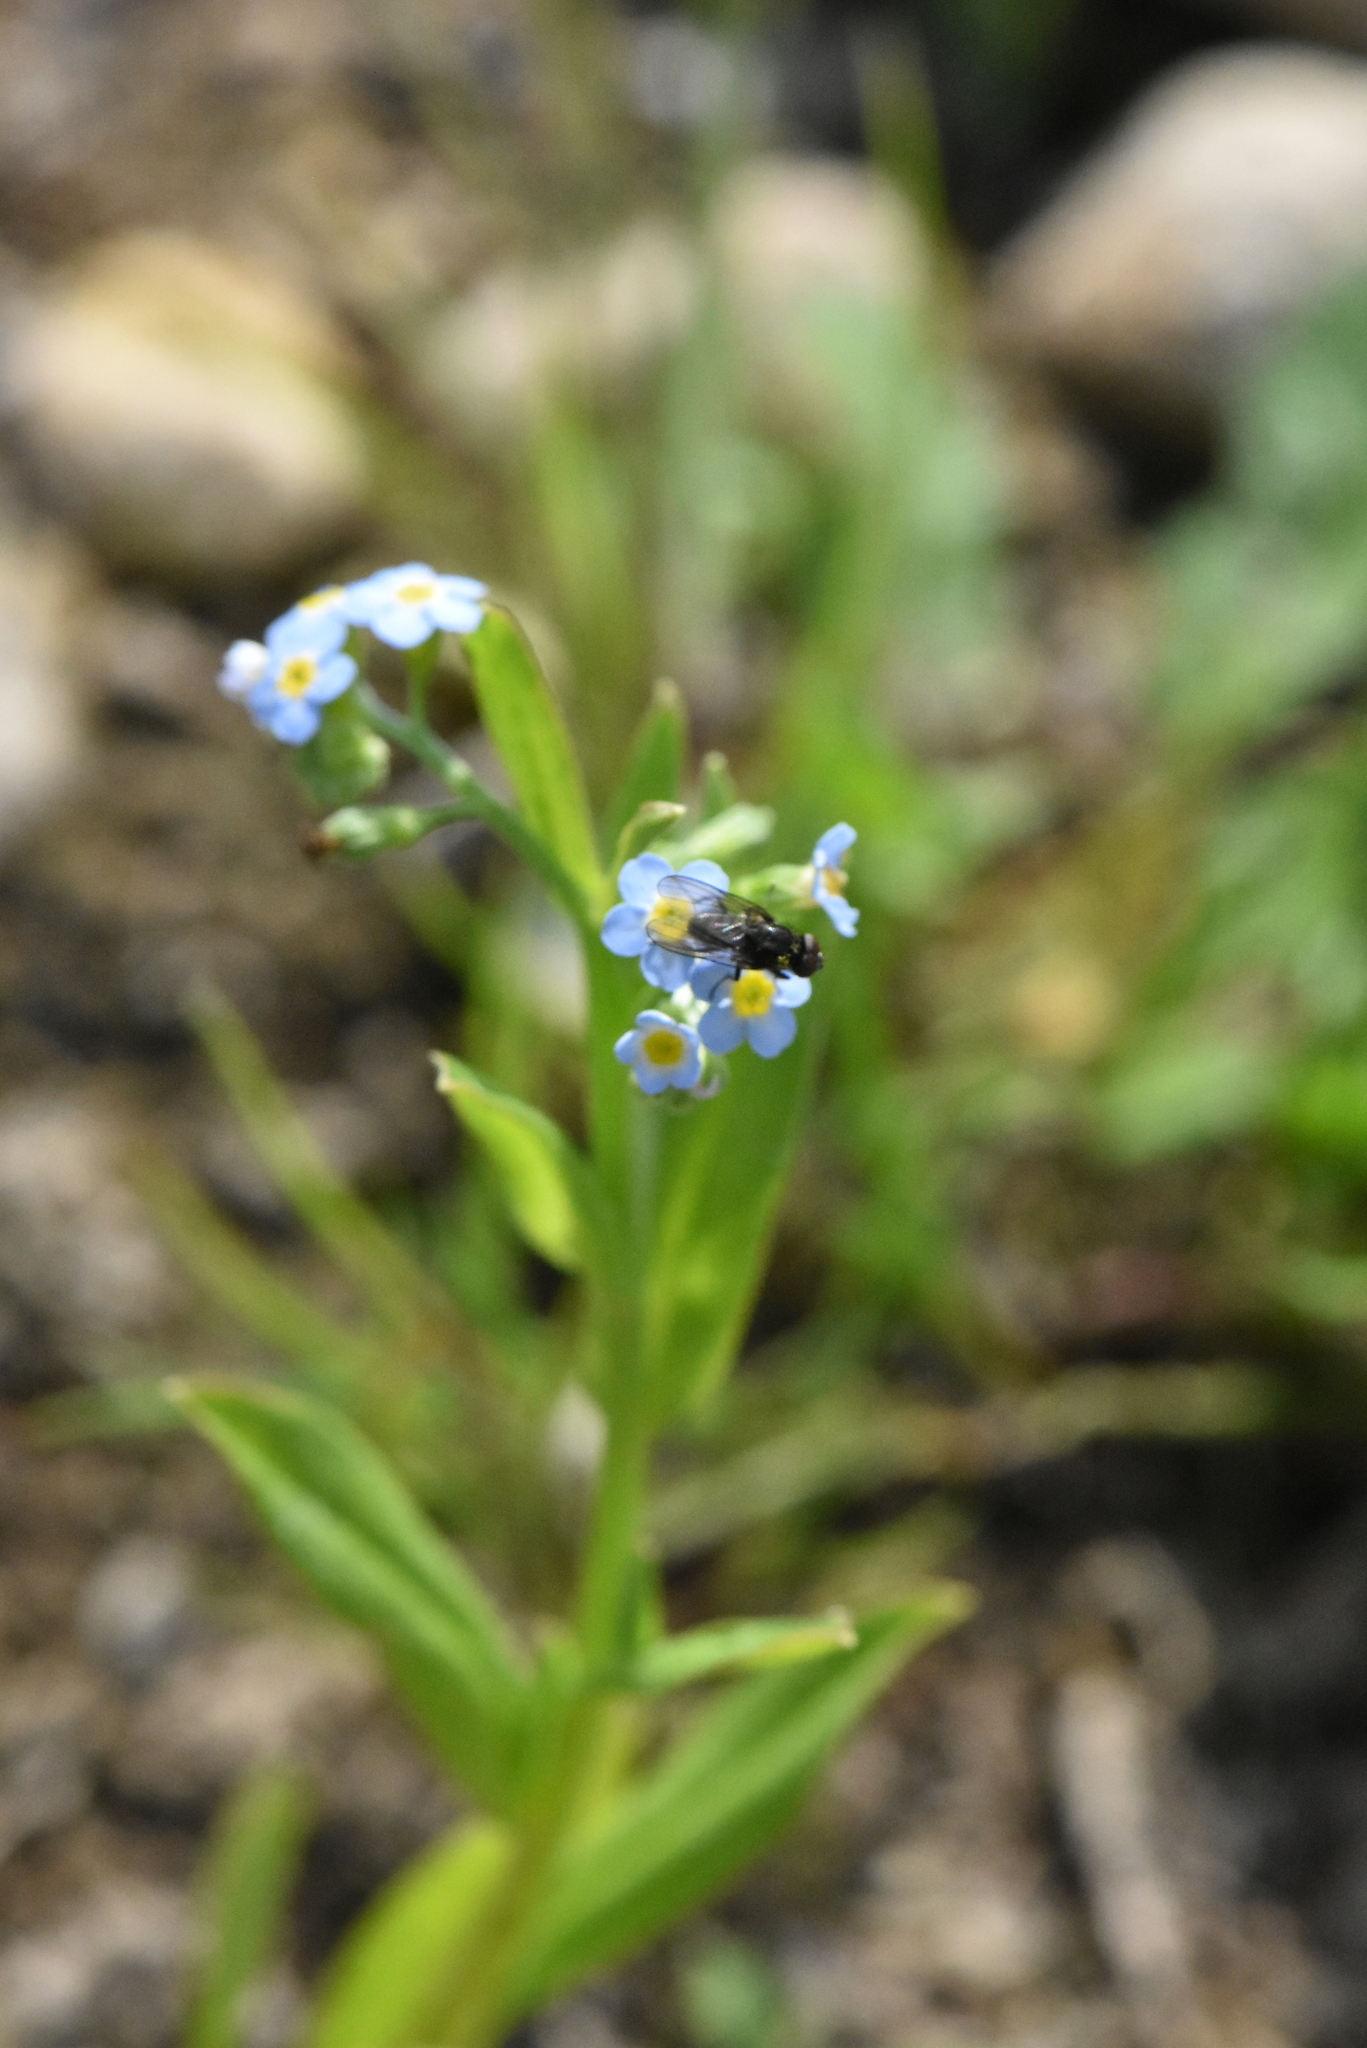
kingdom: Plantae
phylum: Tracheophyta
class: Magnoliopsida
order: Boraginales
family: Boraginaceae
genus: Myosotis
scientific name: Myosotis scorpioides
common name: Water forget-me-not
